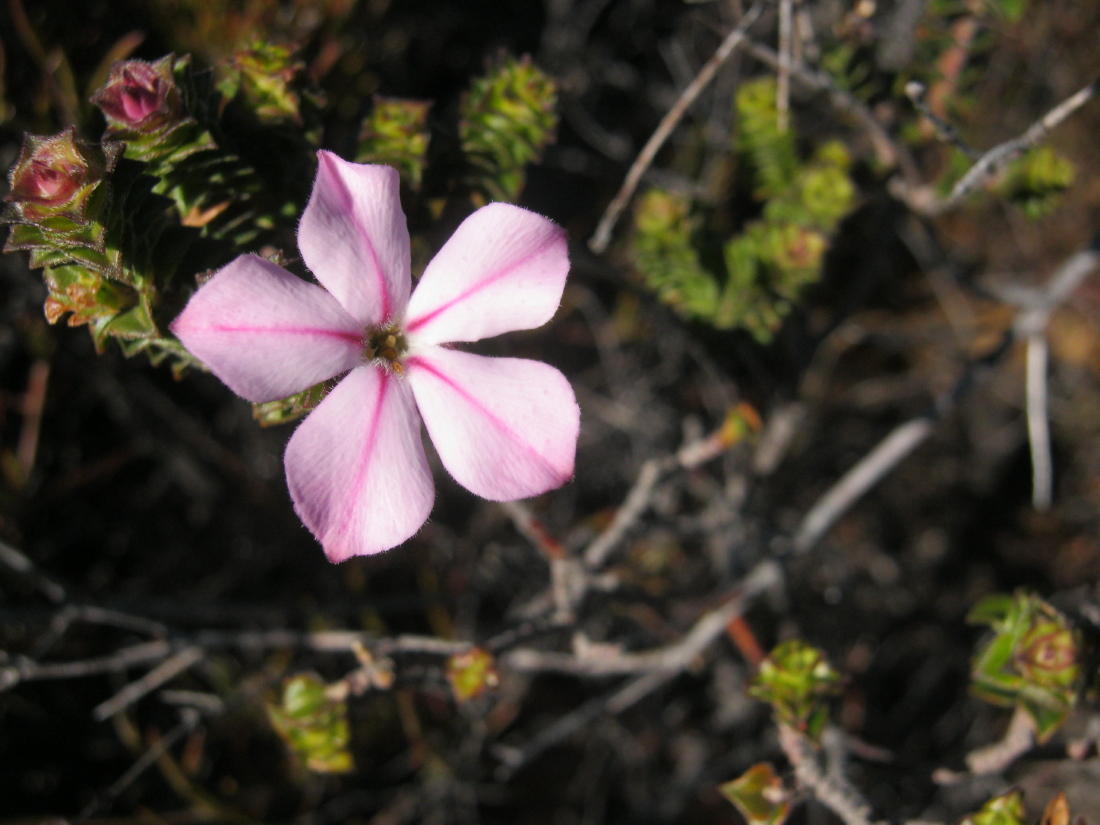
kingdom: Plantae
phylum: Tracheophyta
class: Magnoliopsida
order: Sapindales
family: Rutaceae
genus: Acmadenia
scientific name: Acmadenia tetragona
